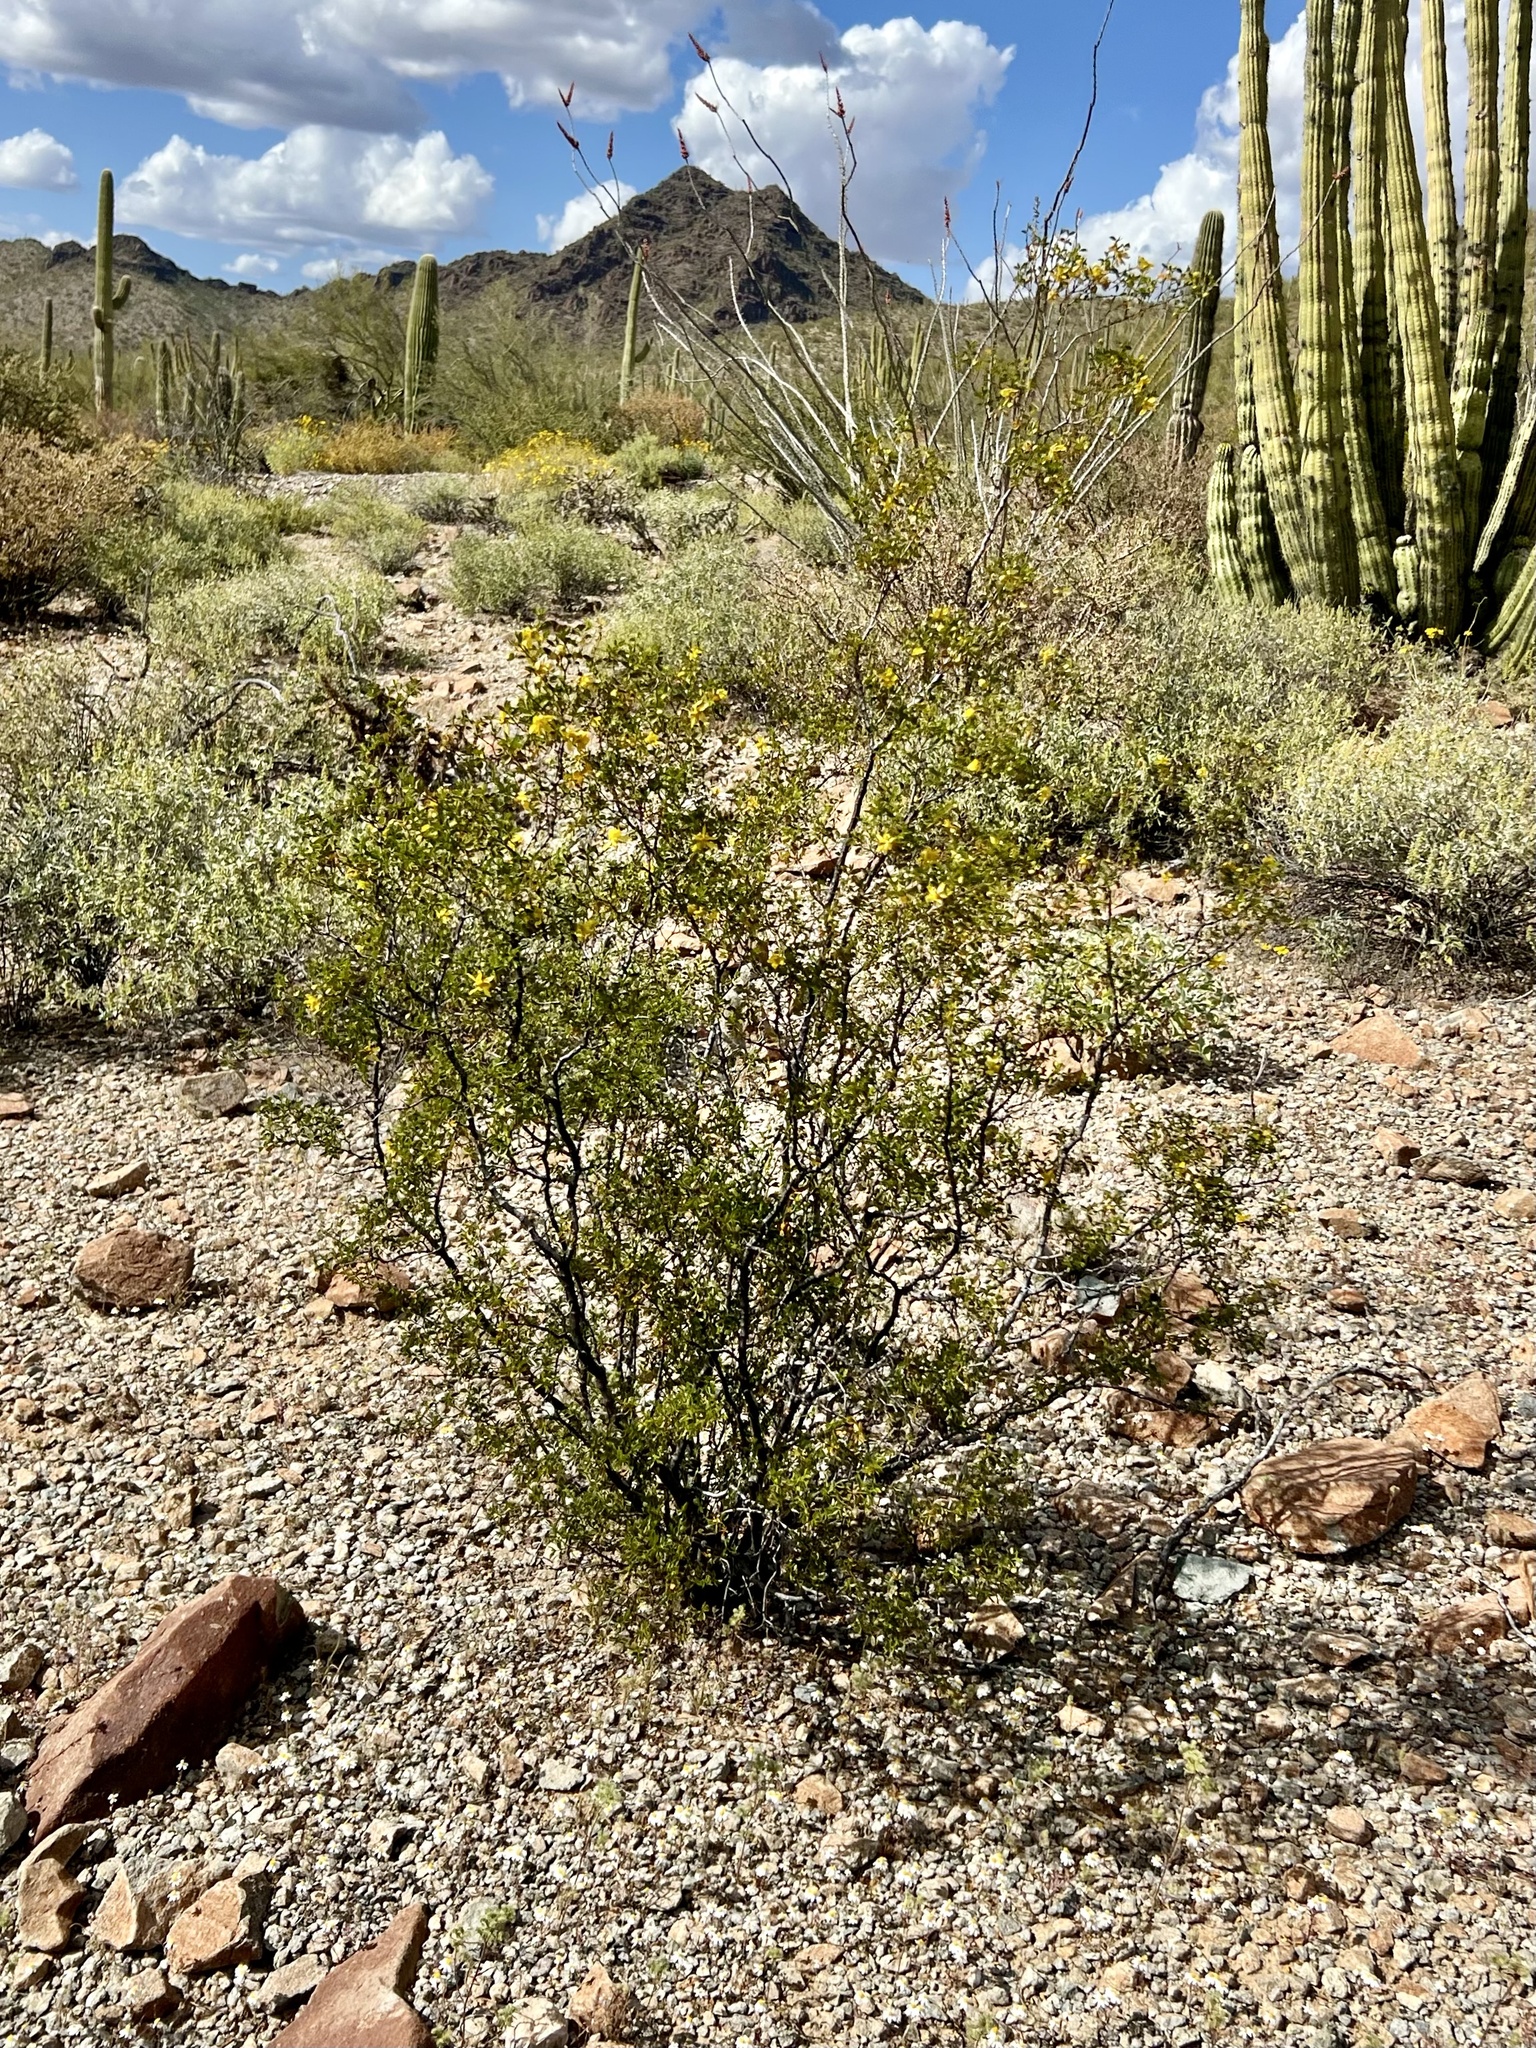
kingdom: Plantae
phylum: Tracheophyta
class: Magnoliopsida
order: Zygophyllales
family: Zygophyllaceae
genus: Larrea
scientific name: Larrea tridentata
